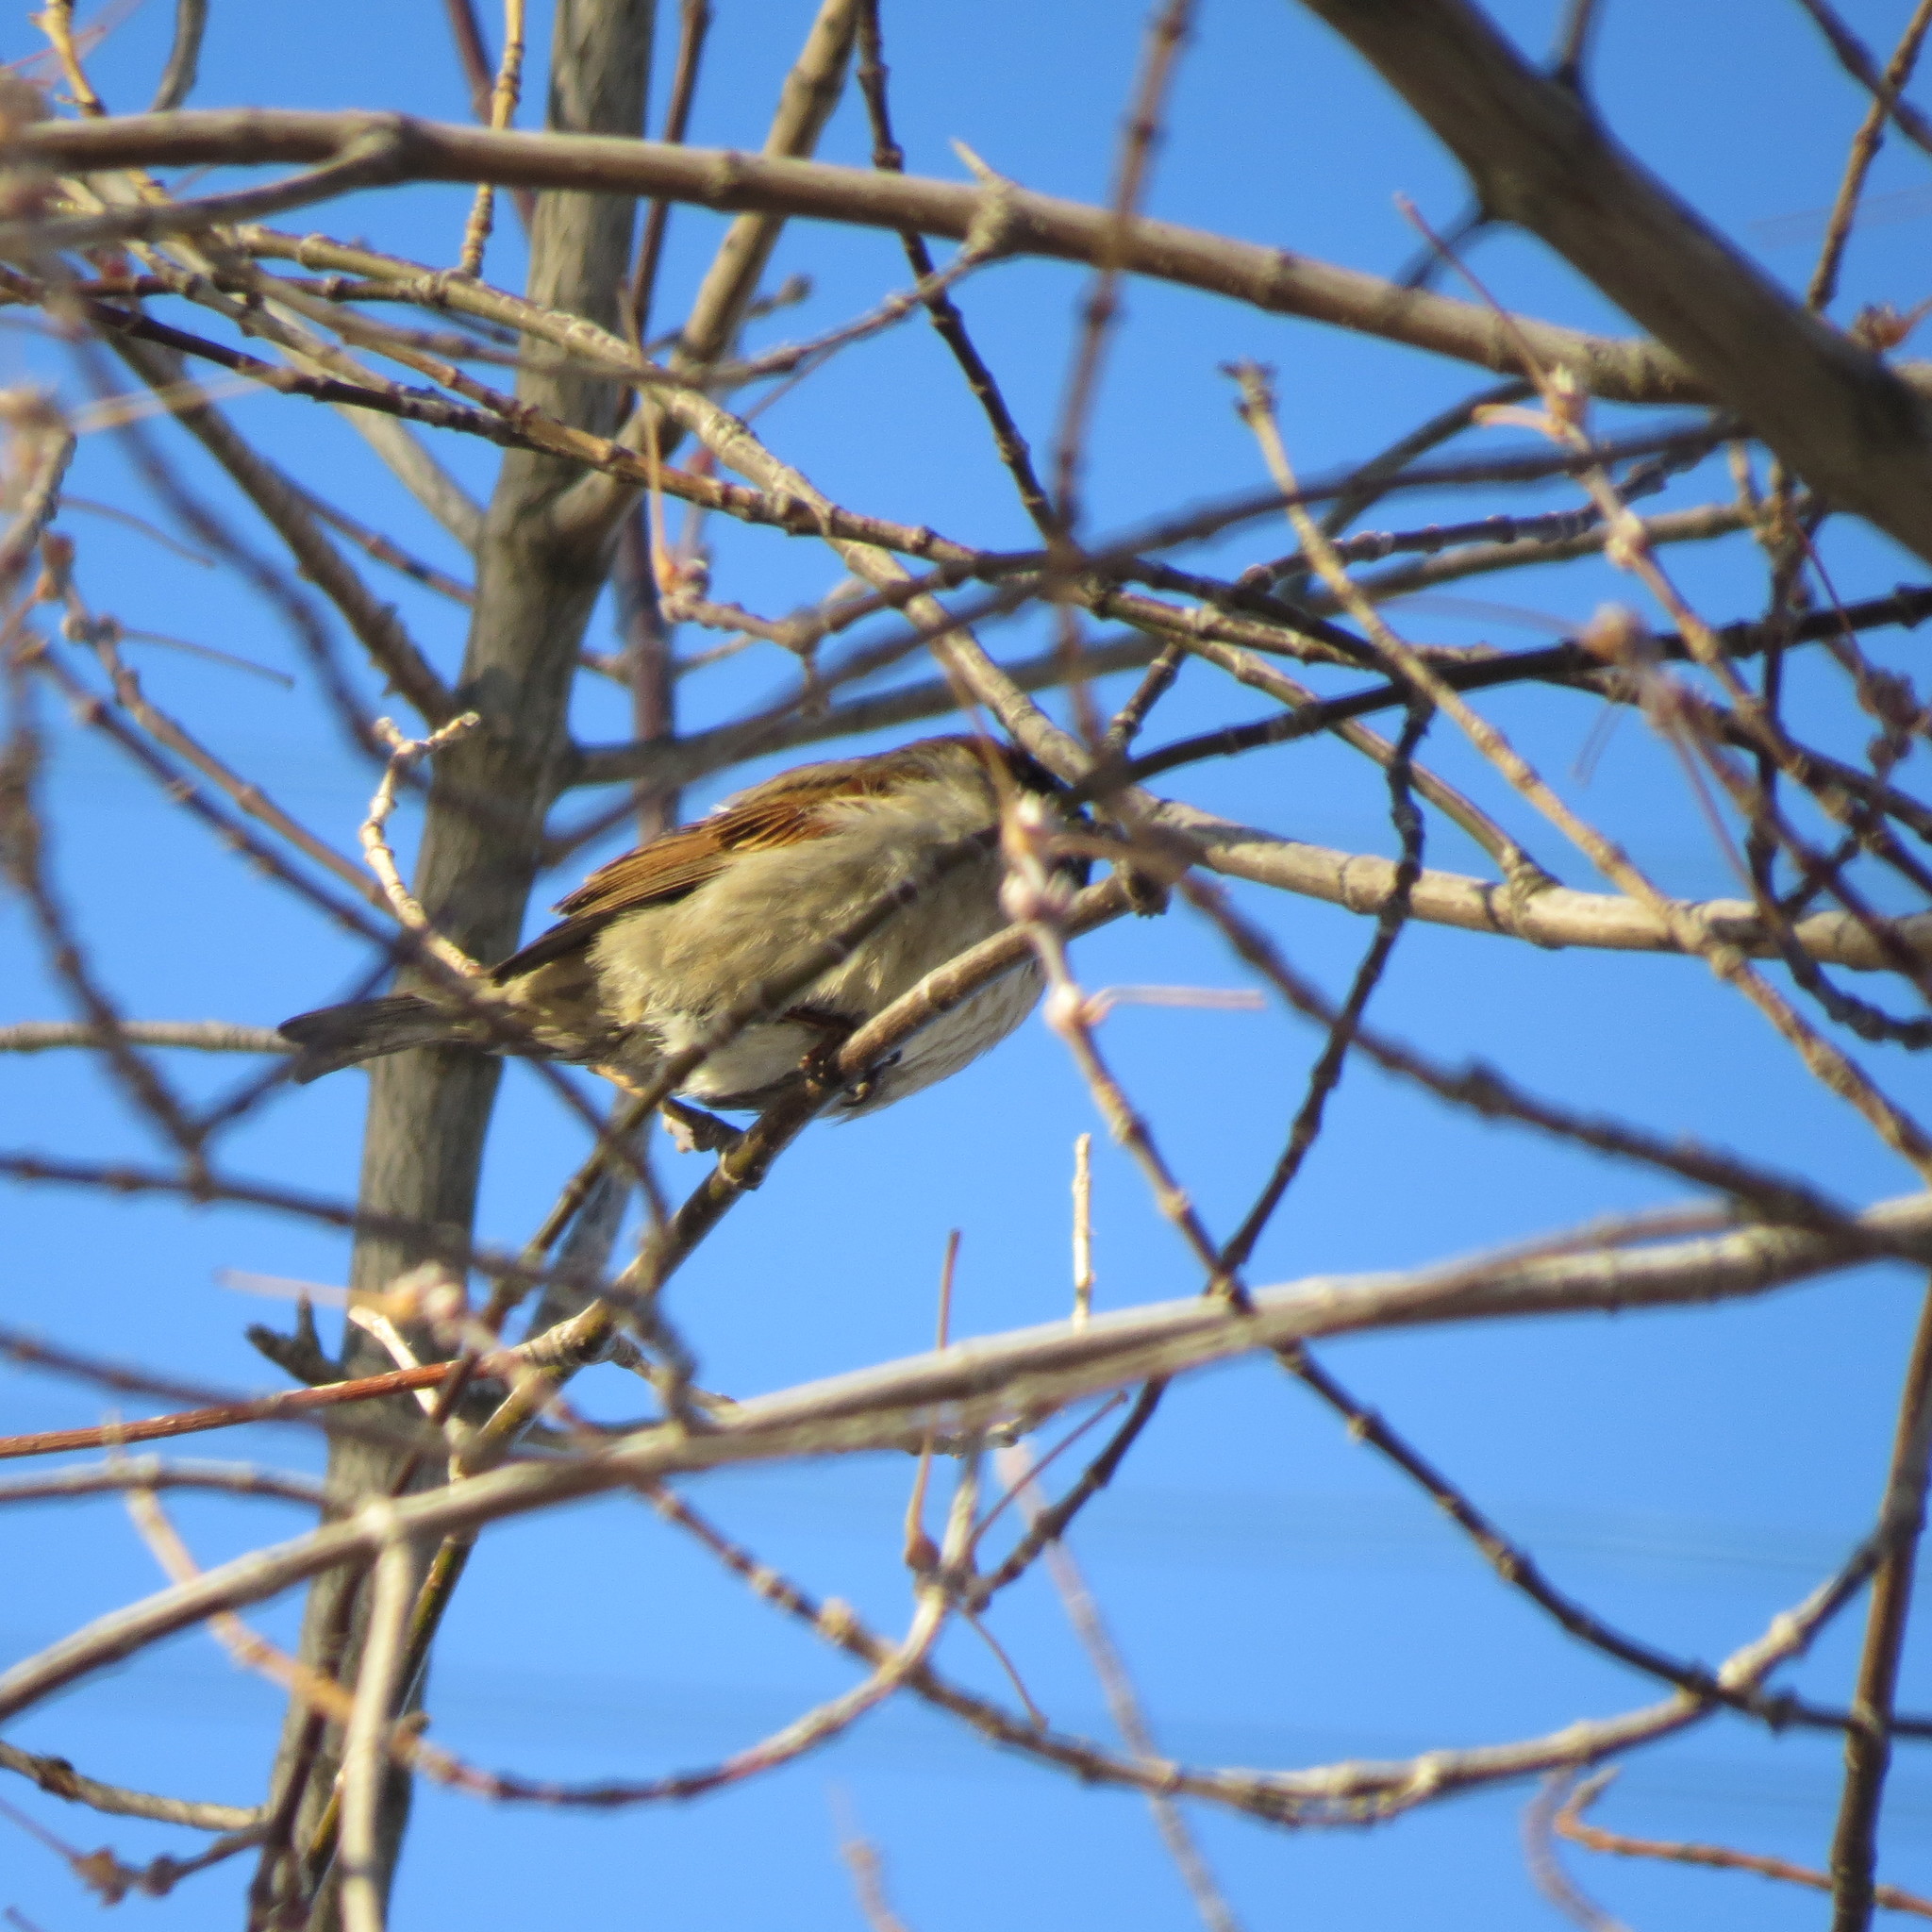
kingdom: Animalia
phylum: Chordata
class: Aves
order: Passeriformes
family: Passeridae
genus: Passer
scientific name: Passer domesticus
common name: House sparrow
